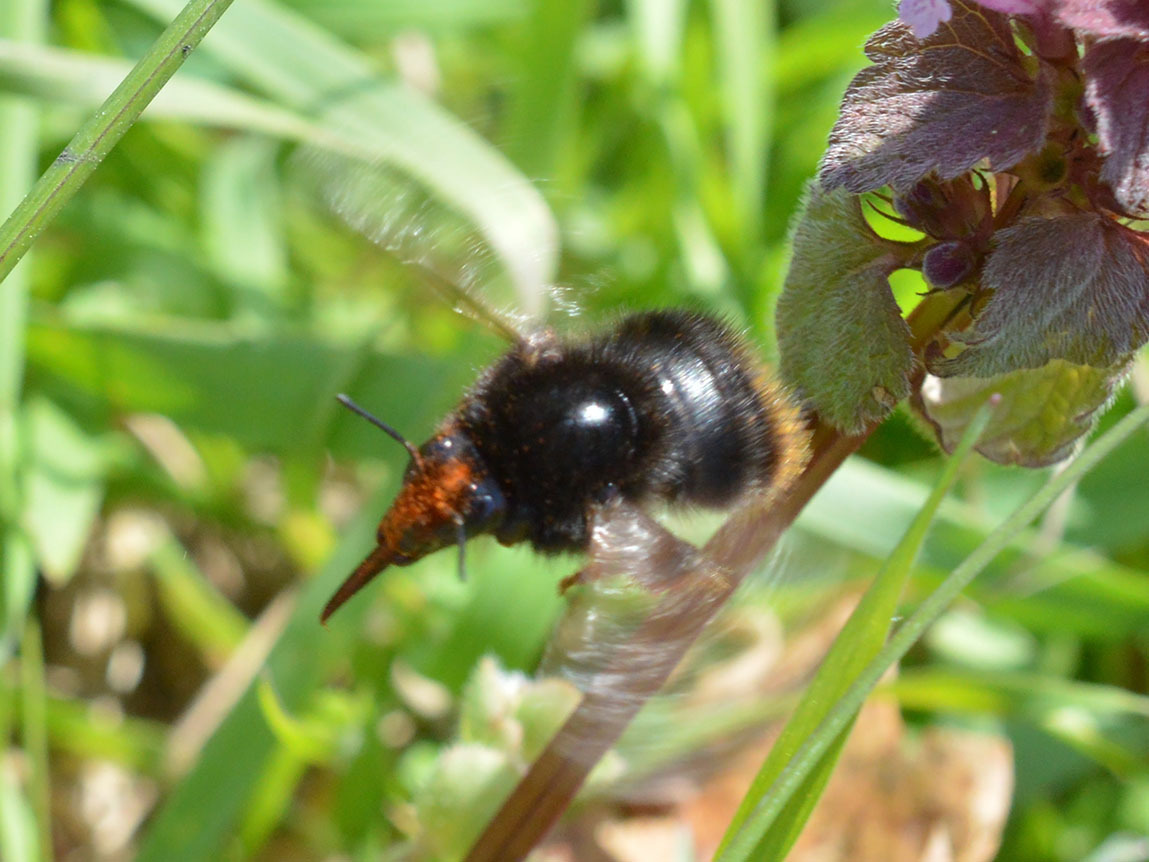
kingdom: Animalia
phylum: Arthropoda
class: Insecta
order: Hymenoptera
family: Apidae
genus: Bombus
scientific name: Bombus ruderarius
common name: Red-shanked carder-bee
